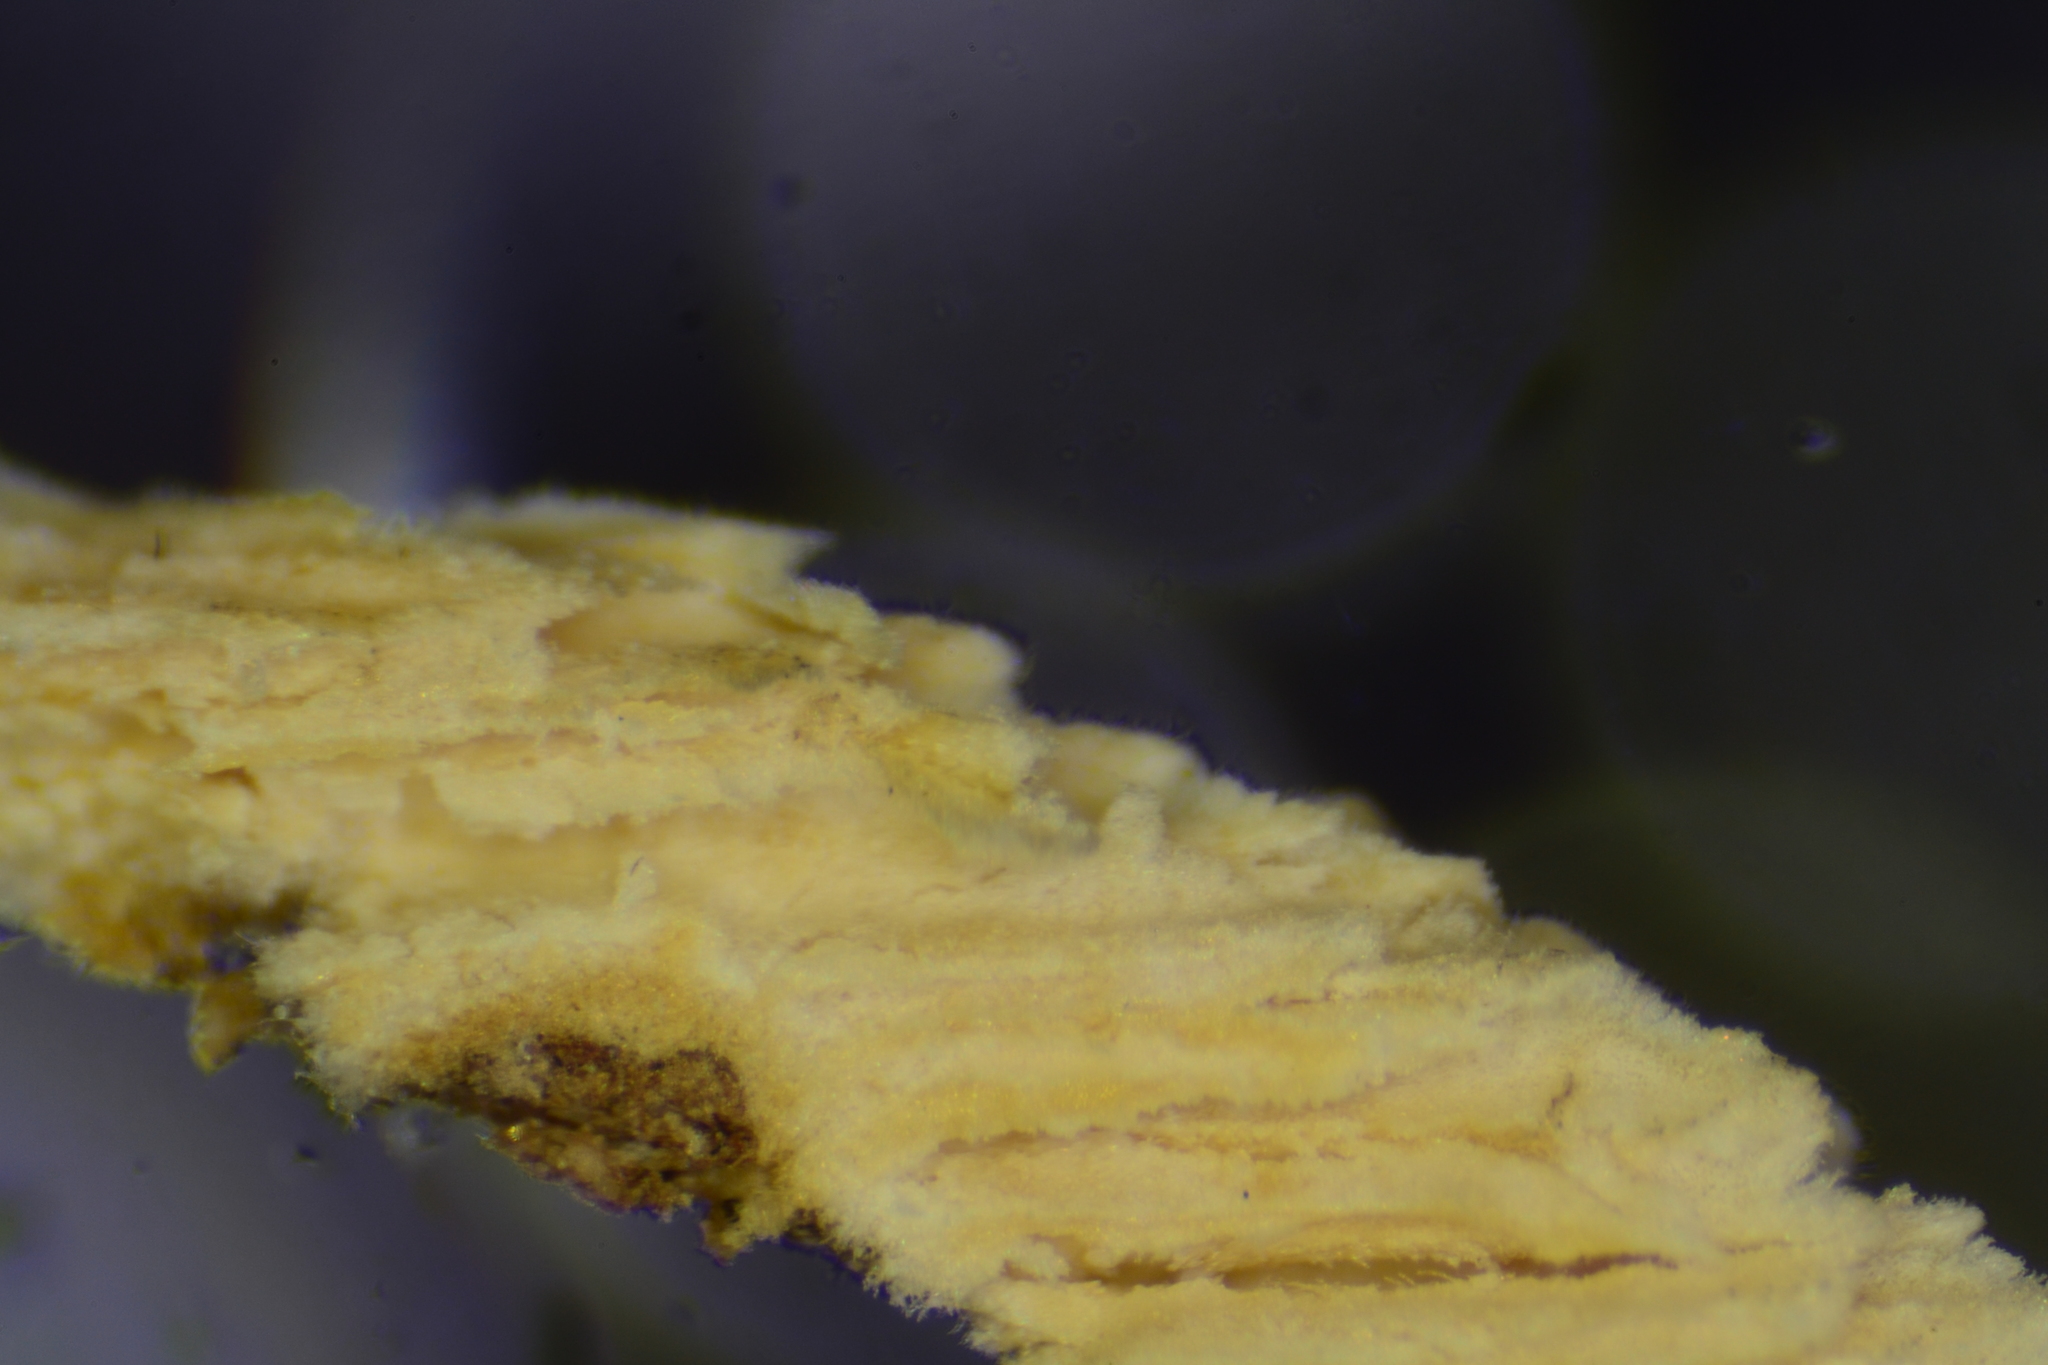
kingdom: Fungi
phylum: Basidiomycota
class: Agaricomycetes
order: Hymenochaetales
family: Schizoporaceae
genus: Xylodon
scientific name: Xylodon flaviporus
